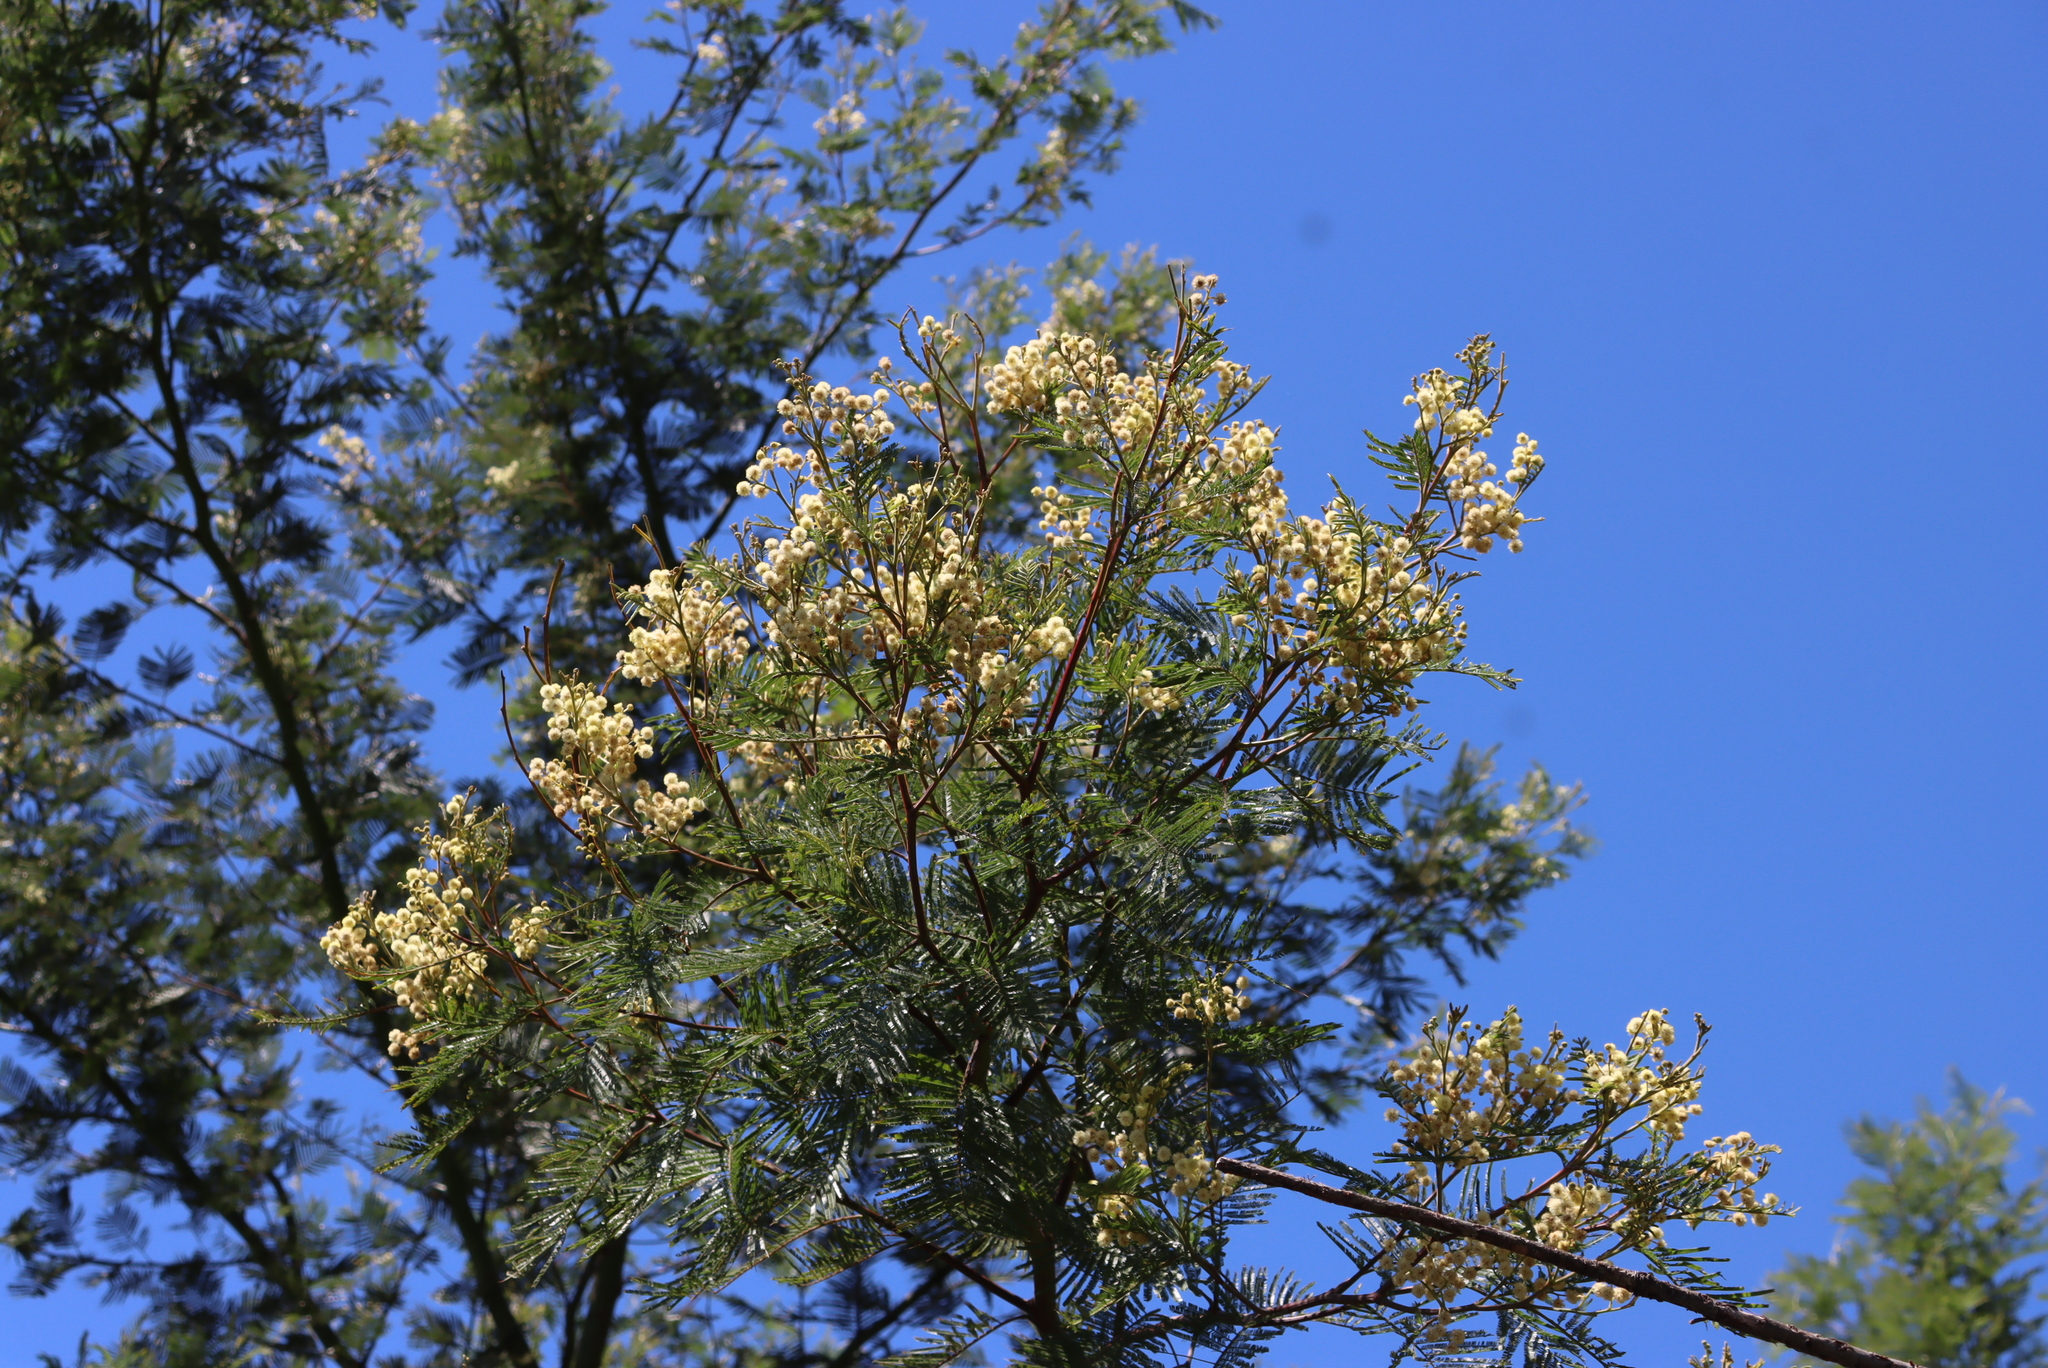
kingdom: Plantae
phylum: Tracheophyta
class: Magnoliopsida
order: Fabales
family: Fabaceae
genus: Acacia
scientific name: Acacia mearnsii
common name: Black wattle
